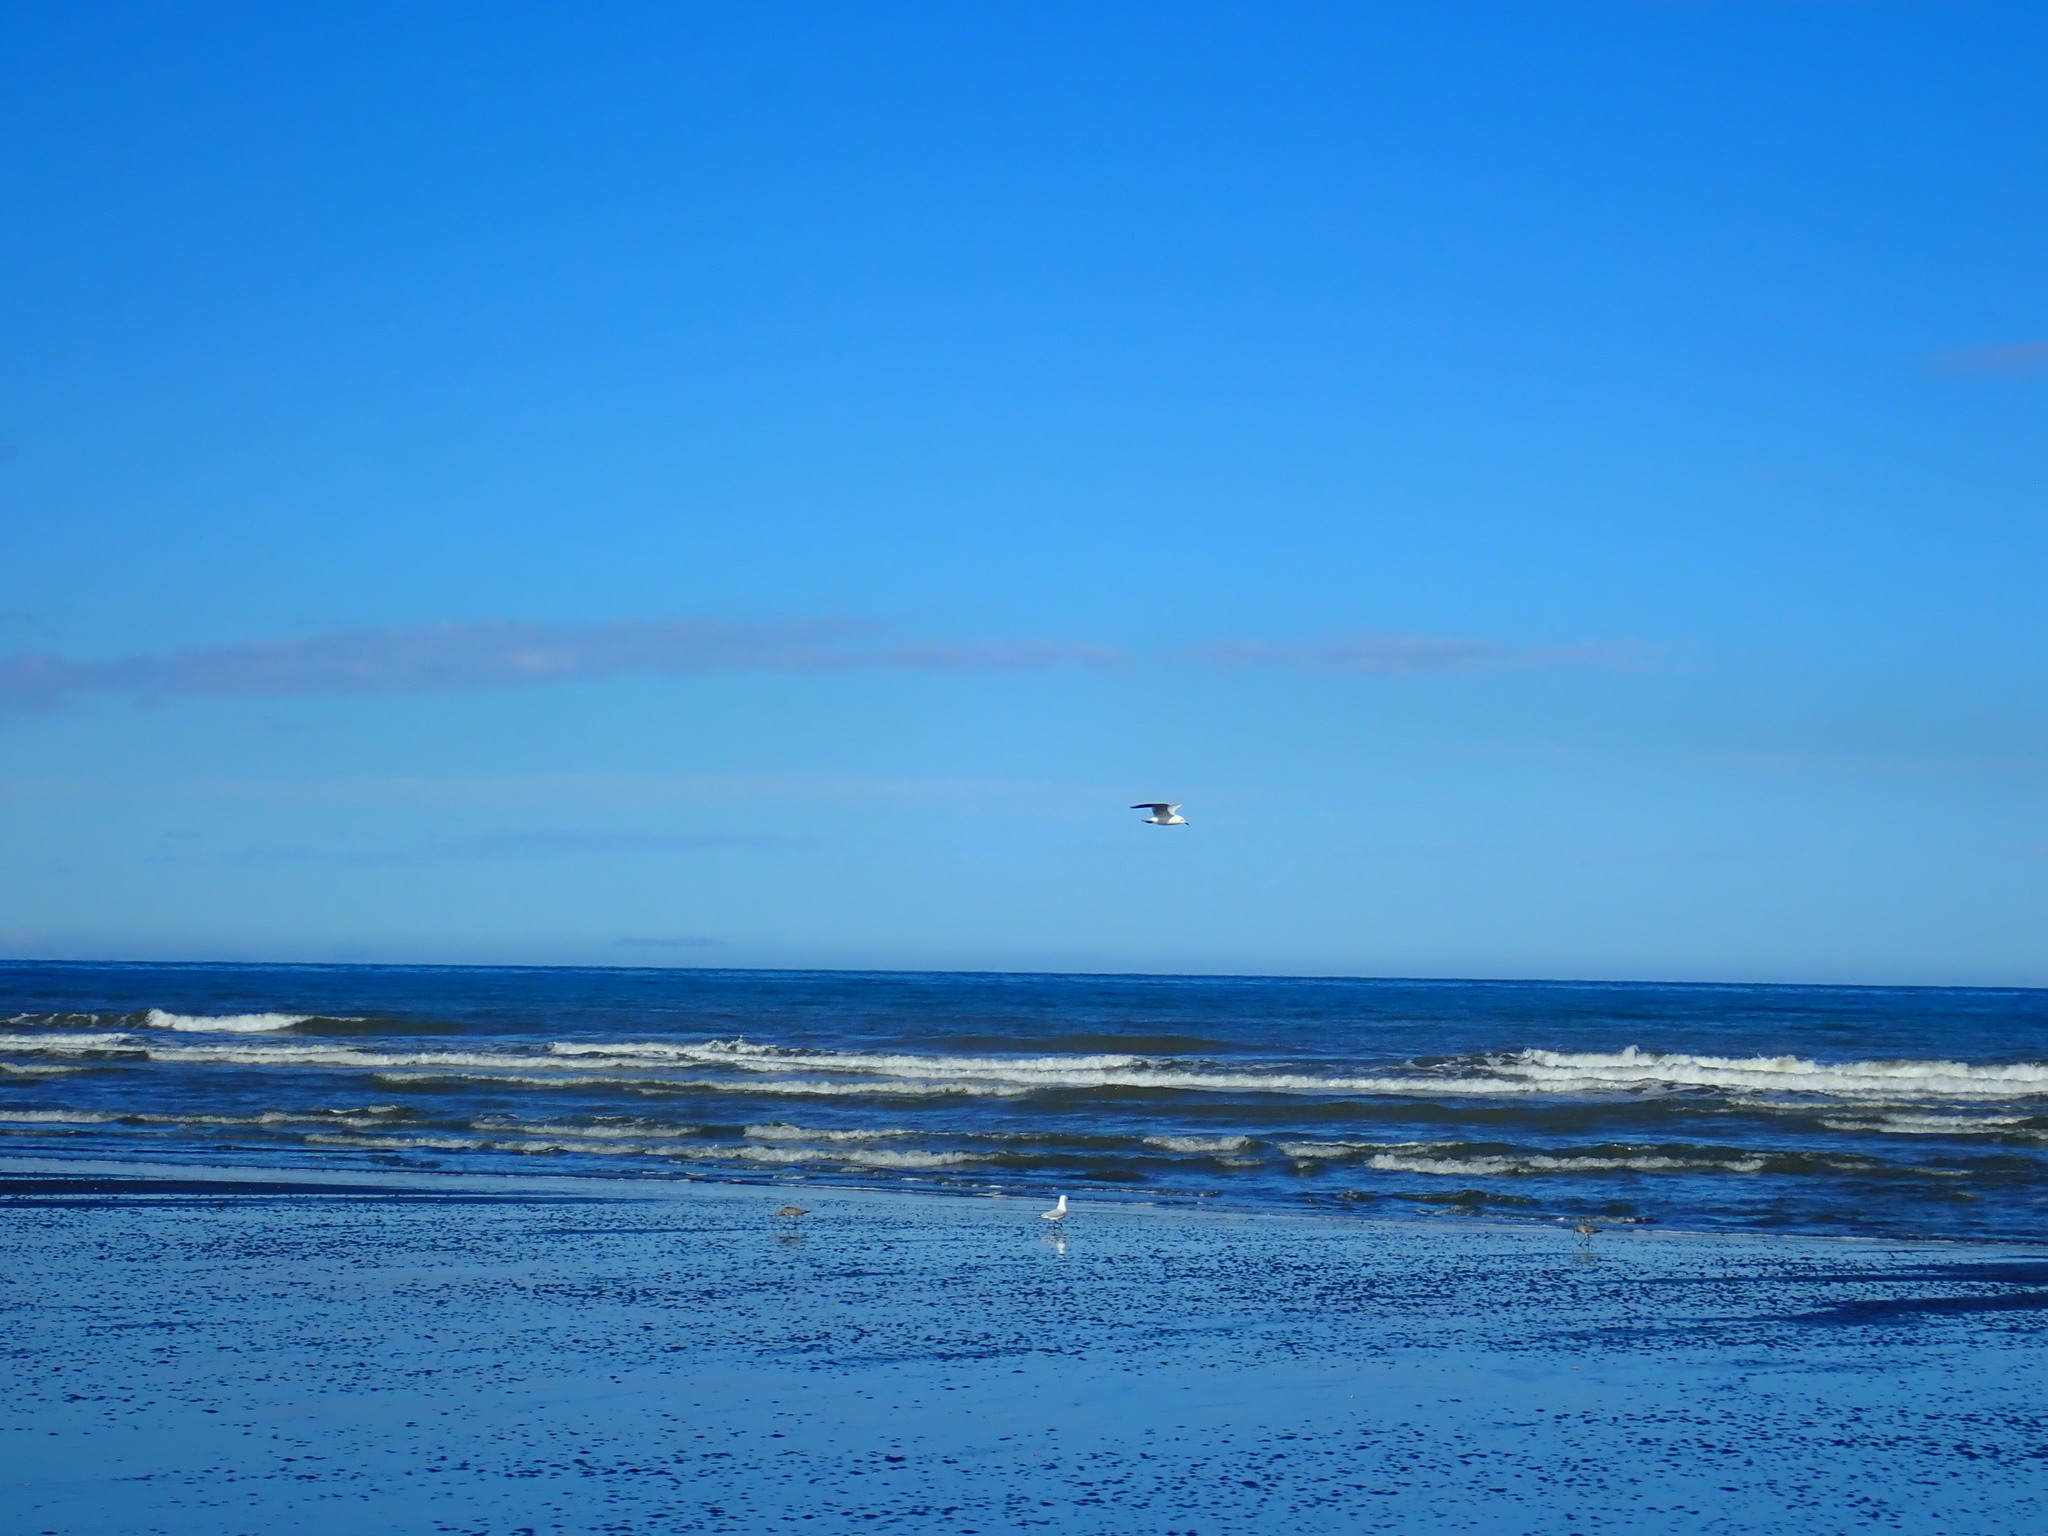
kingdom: Animalia
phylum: Chordata
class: Aves
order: Charadriiformes
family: Scolopacidae
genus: Limosa
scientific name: Limosa lapponica
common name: Bar-tailed godwit
